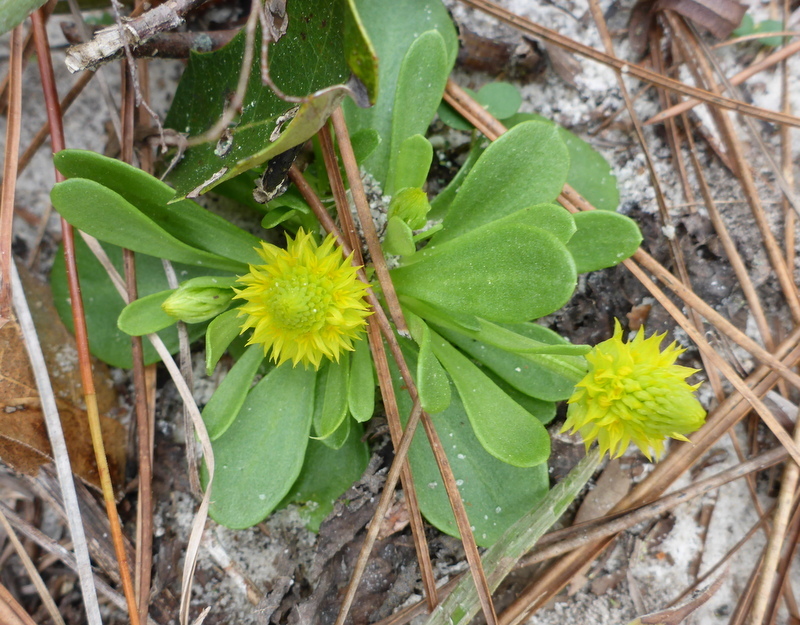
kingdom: Plantae
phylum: Tracheophyta
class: Magnoliopsida
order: Fabales
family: Polygalaceae
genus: Polygala
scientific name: Polygala nana
